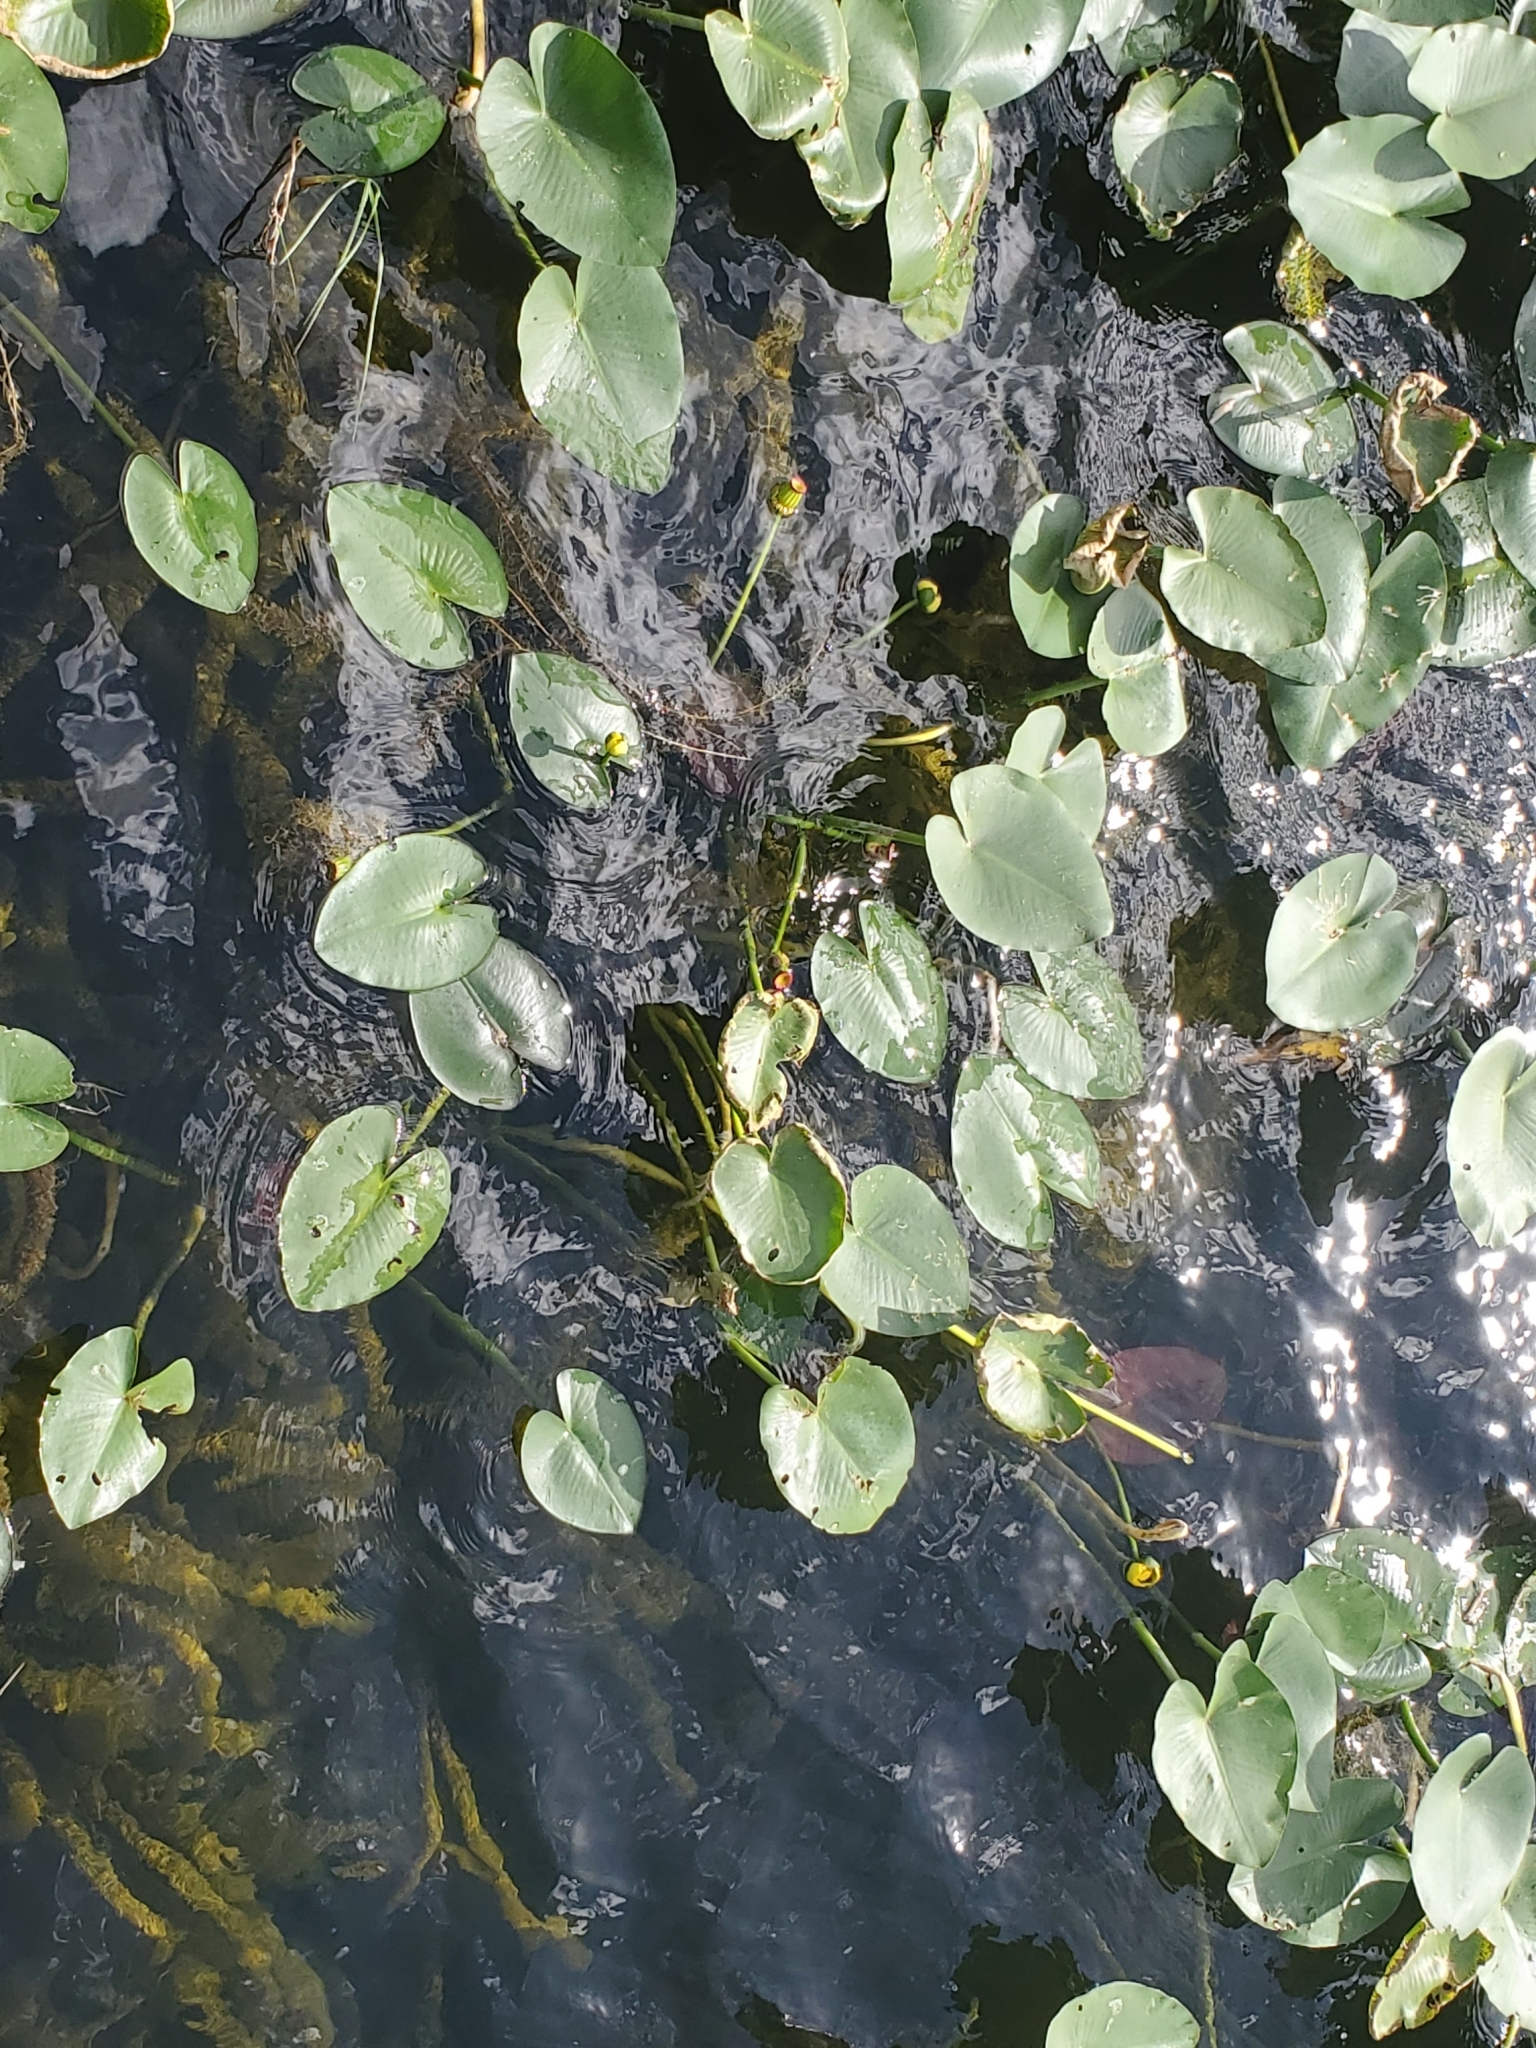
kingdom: Plantae
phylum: Tracheophyta
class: Magnoliopsida
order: Nymphaeales
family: Nymphaeaceae
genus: Nuphar
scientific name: Nuphar advena
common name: Spatter-dock
